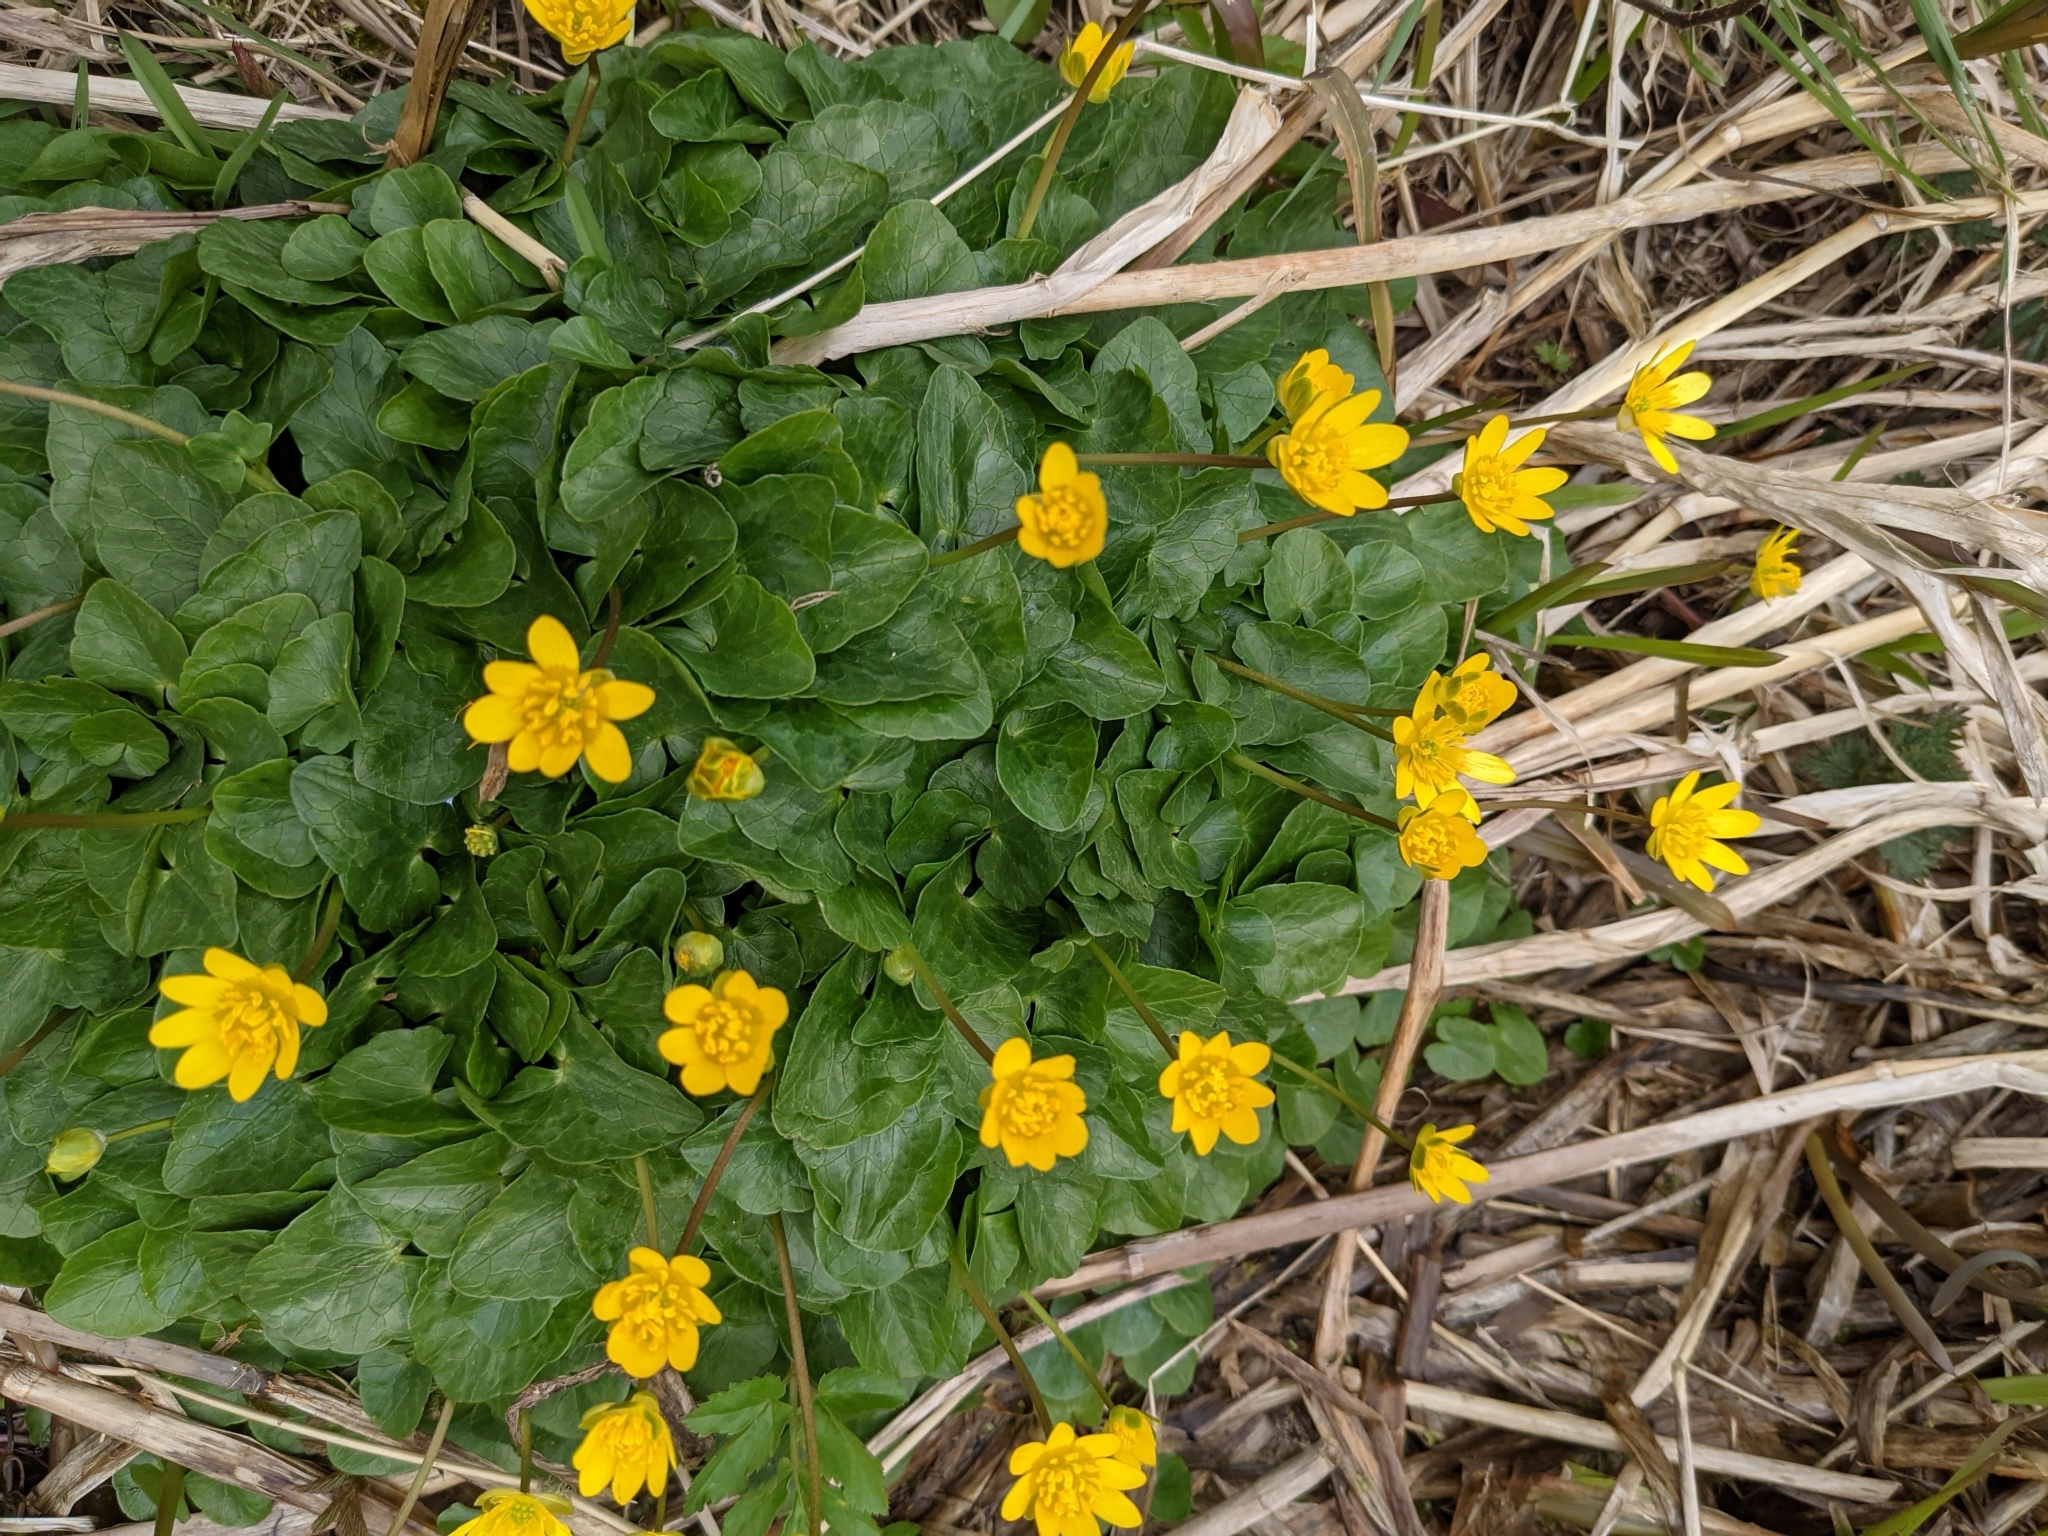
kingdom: Plantae
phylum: Tracheophyta
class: Magnoliopsida
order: Ranunculales
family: Ranunculaceae
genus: Ficaria
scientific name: Ficaria verna
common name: Lesser celandine
